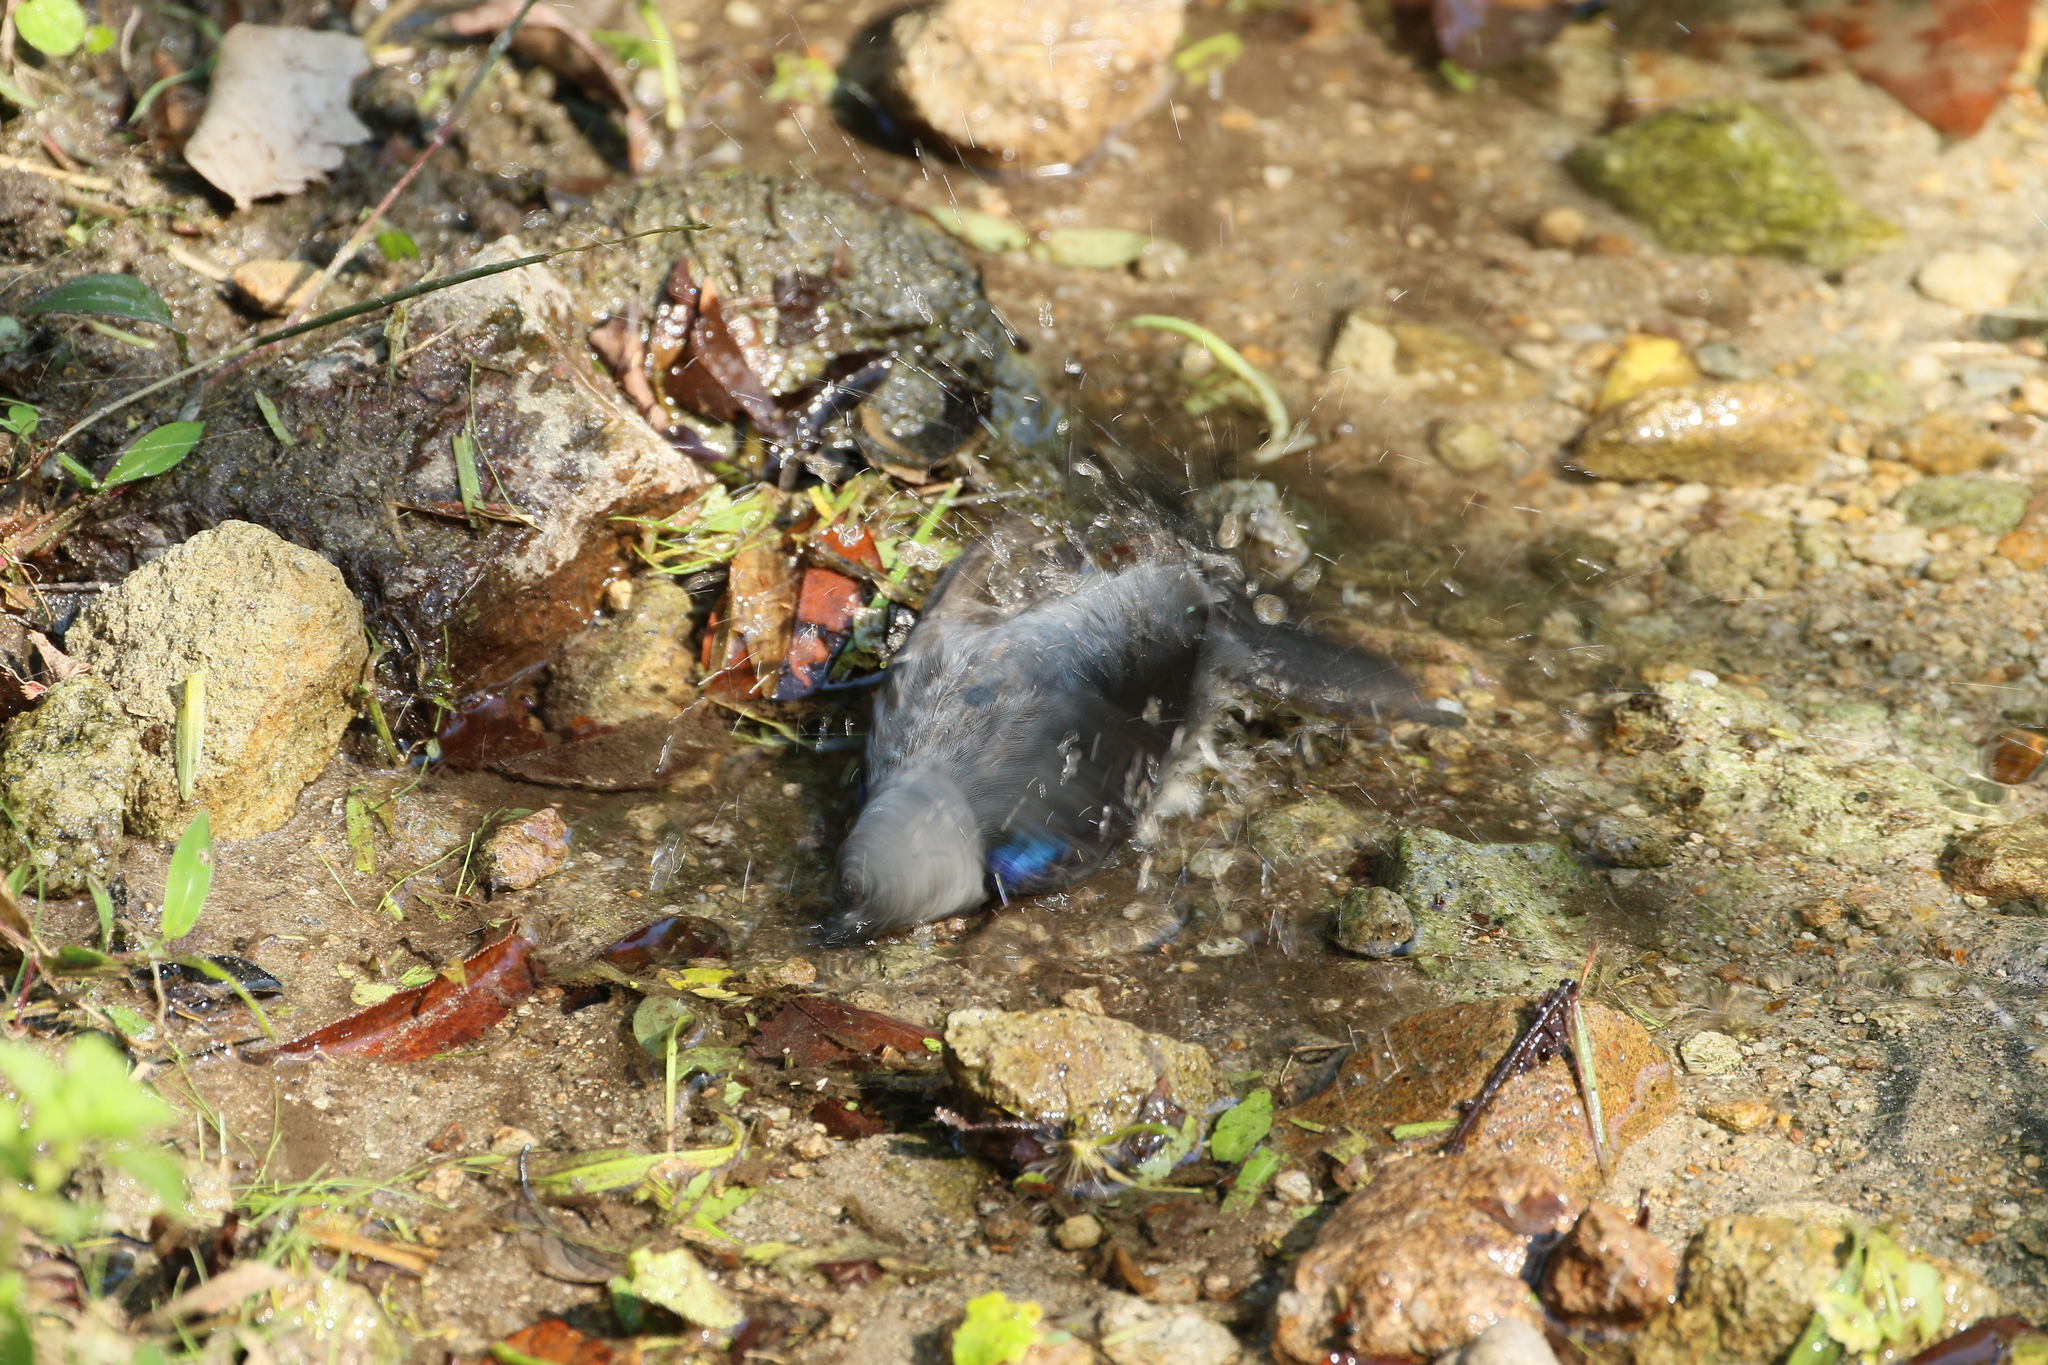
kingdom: Animalia
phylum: Chordata
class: Aves
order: Passeriformes
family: Thraupidae
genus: Tangara
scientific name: Tangara inornata
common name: Plain-colored tanager
